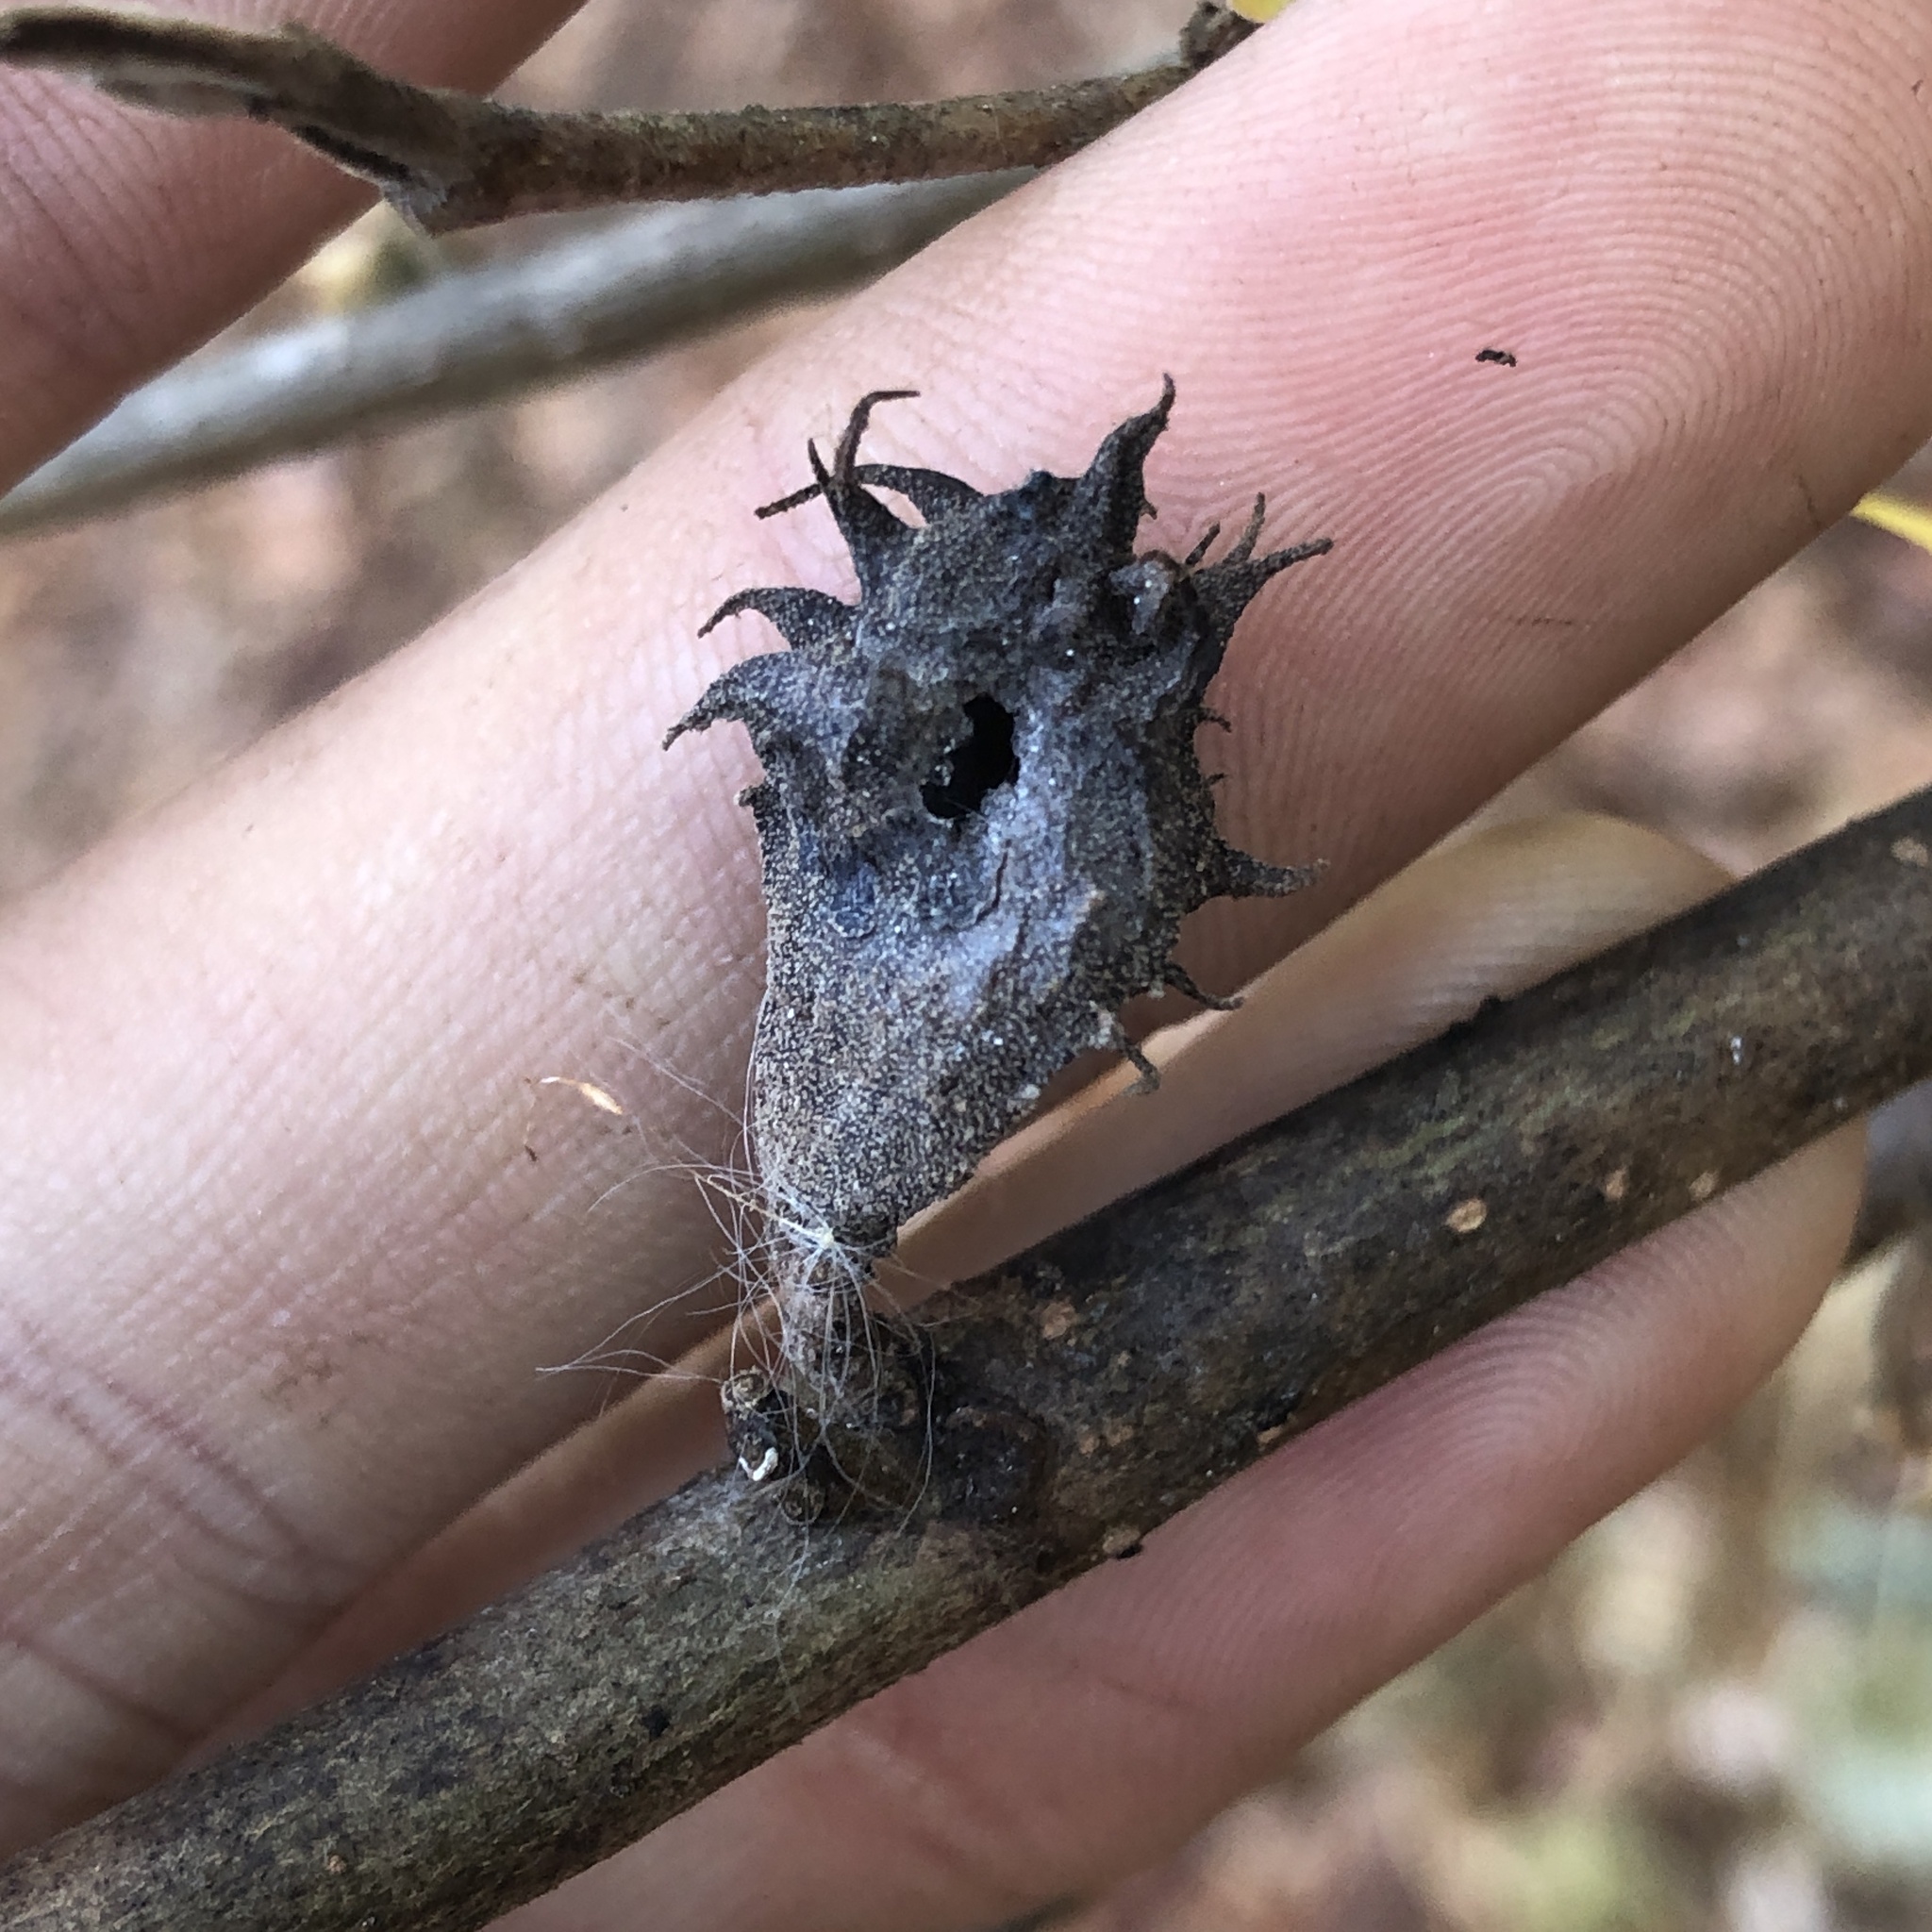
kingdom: Animalia
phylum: Arthropoda
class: Insecta
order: Hemiptera
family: Aphididae
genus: Hamamelistes
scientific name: Hamamelistes spinosus
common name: Witch hazel gall aphid
